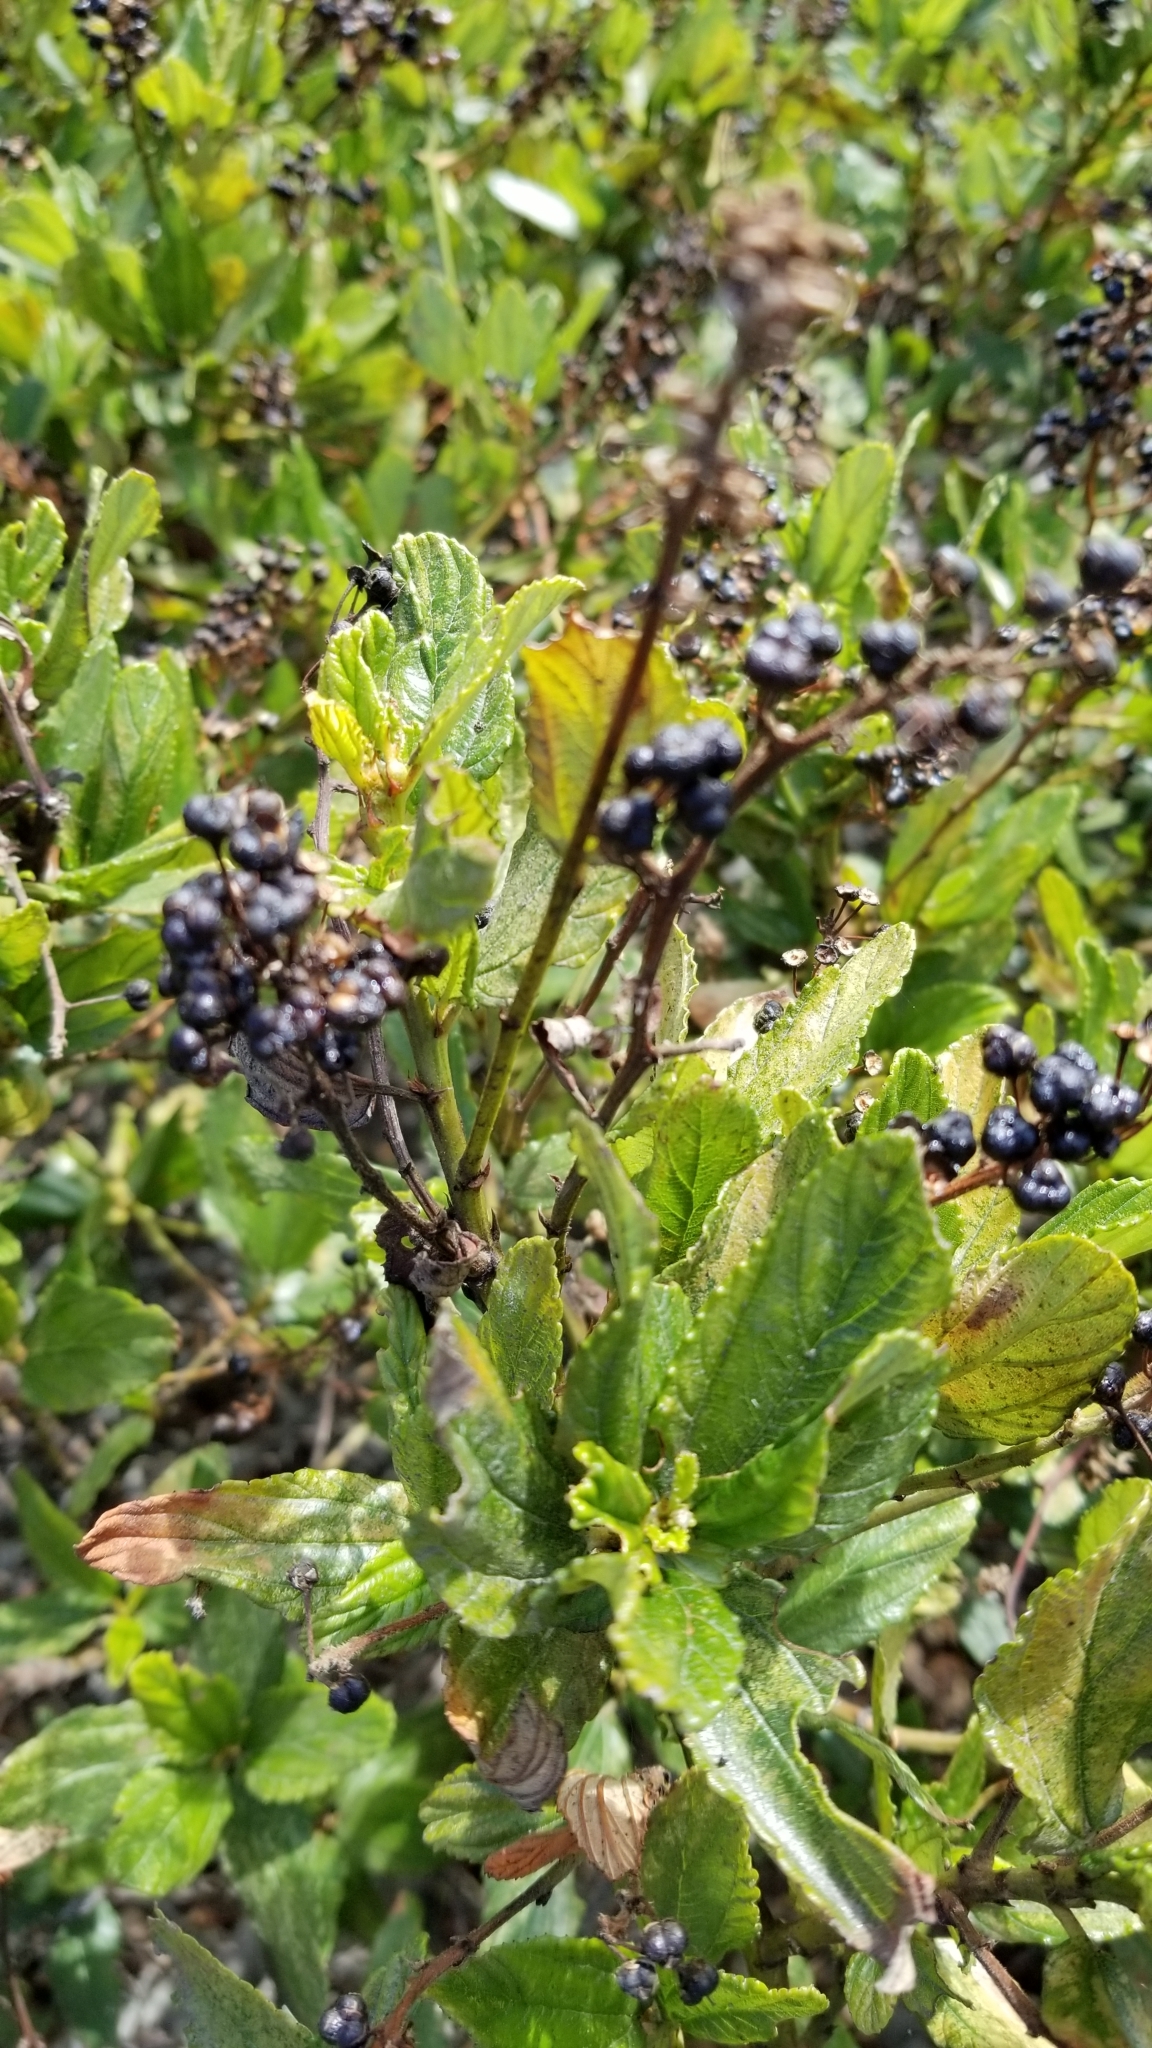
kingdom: Plantae
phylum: Tracheophyta
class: Magnoliopsida
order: Rosales
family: Rhamnaceae
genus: Ceanothus
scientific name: Ceanothus thyrsiflorus
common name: California-lilac
